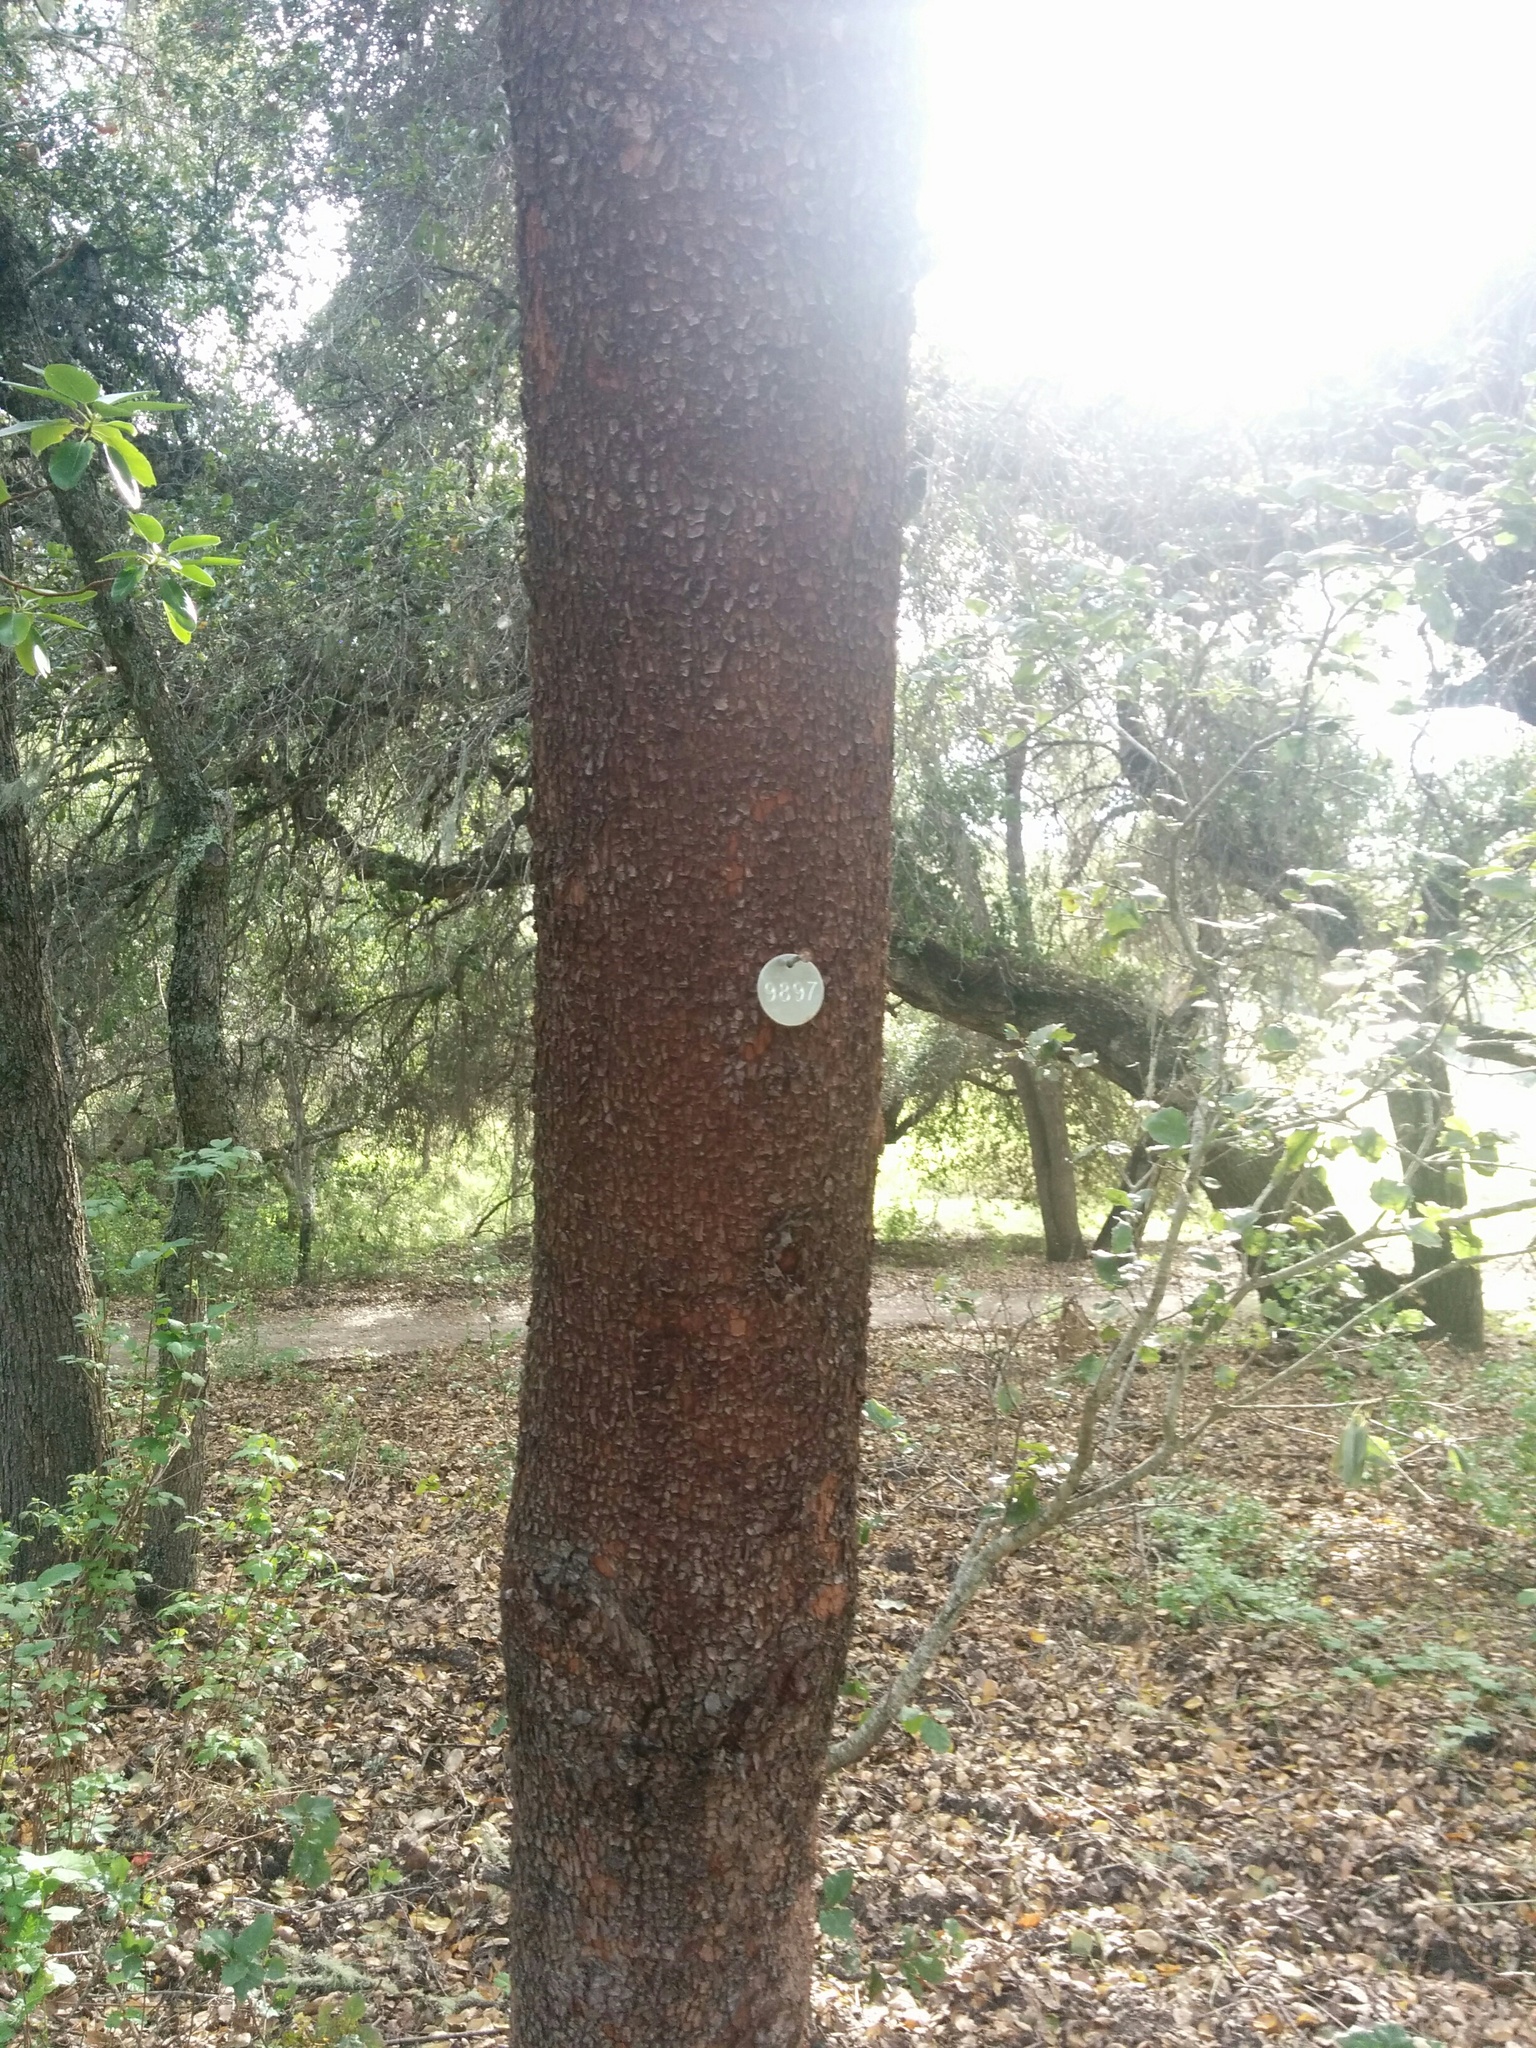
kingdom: Plantae
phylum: Tracheophyta
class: Magnoliopsida
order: Ericales
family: Ericaceae
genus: Arbutus
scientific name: Arbutus menziesii
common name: Pacific madrone
